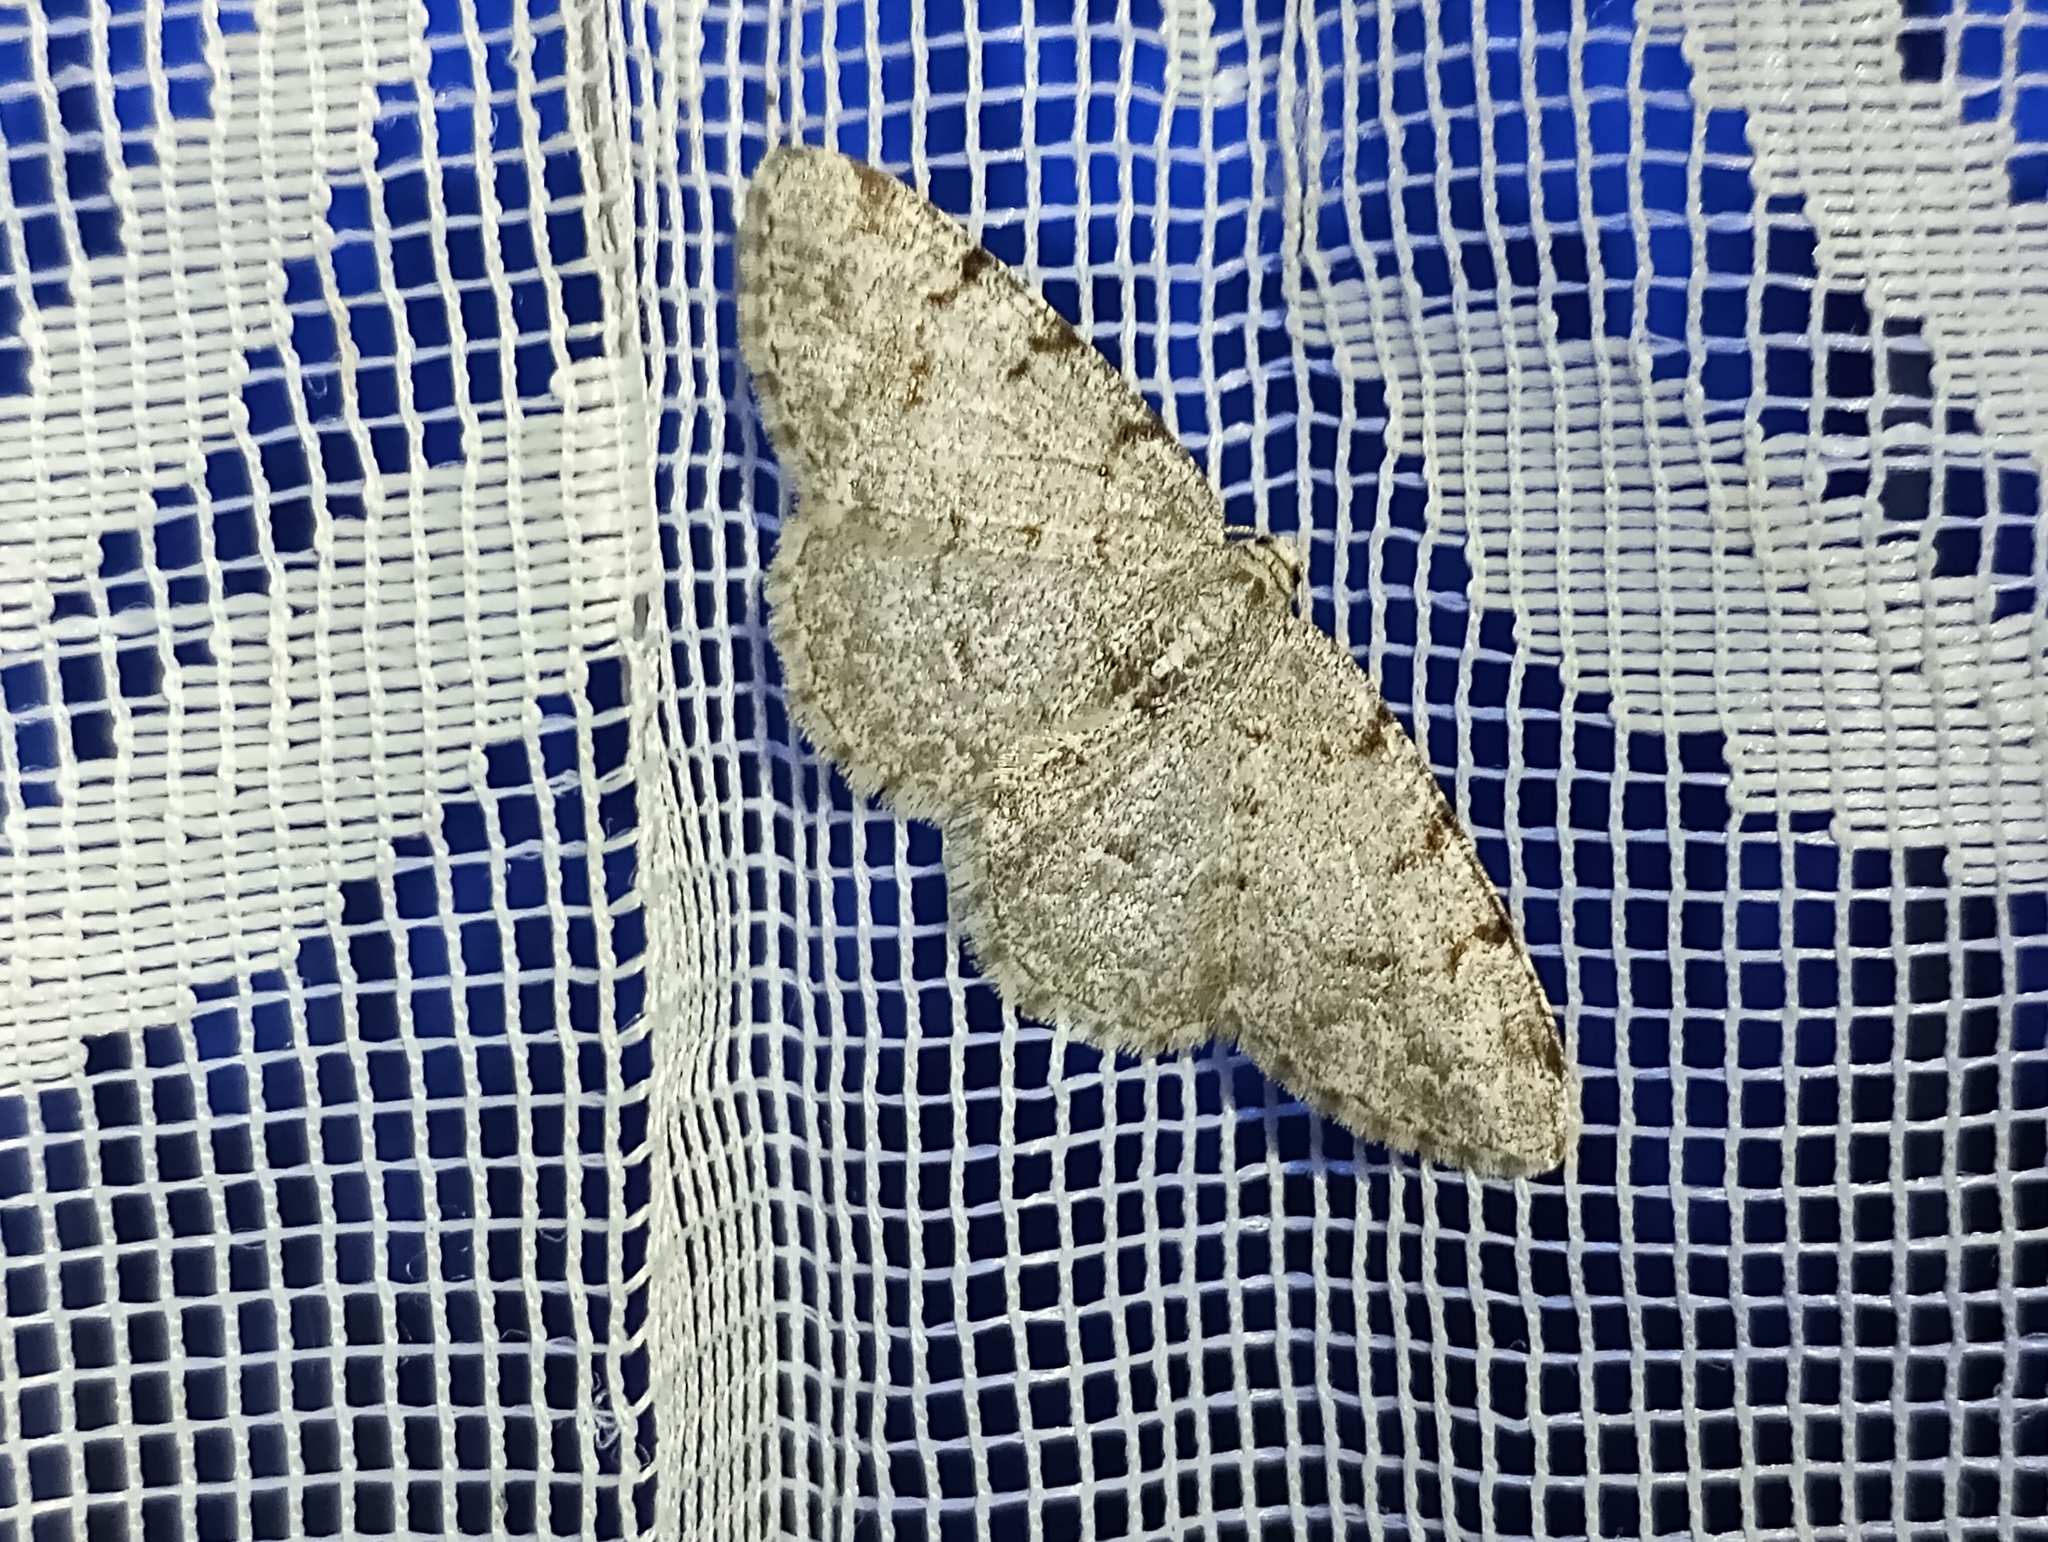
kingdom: Animalia
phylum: Arthropoda
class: Insecta
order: Lepidoptera
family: Geometridae
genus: Aethalura
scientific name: Aethalura punctulata
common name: Grey birch
